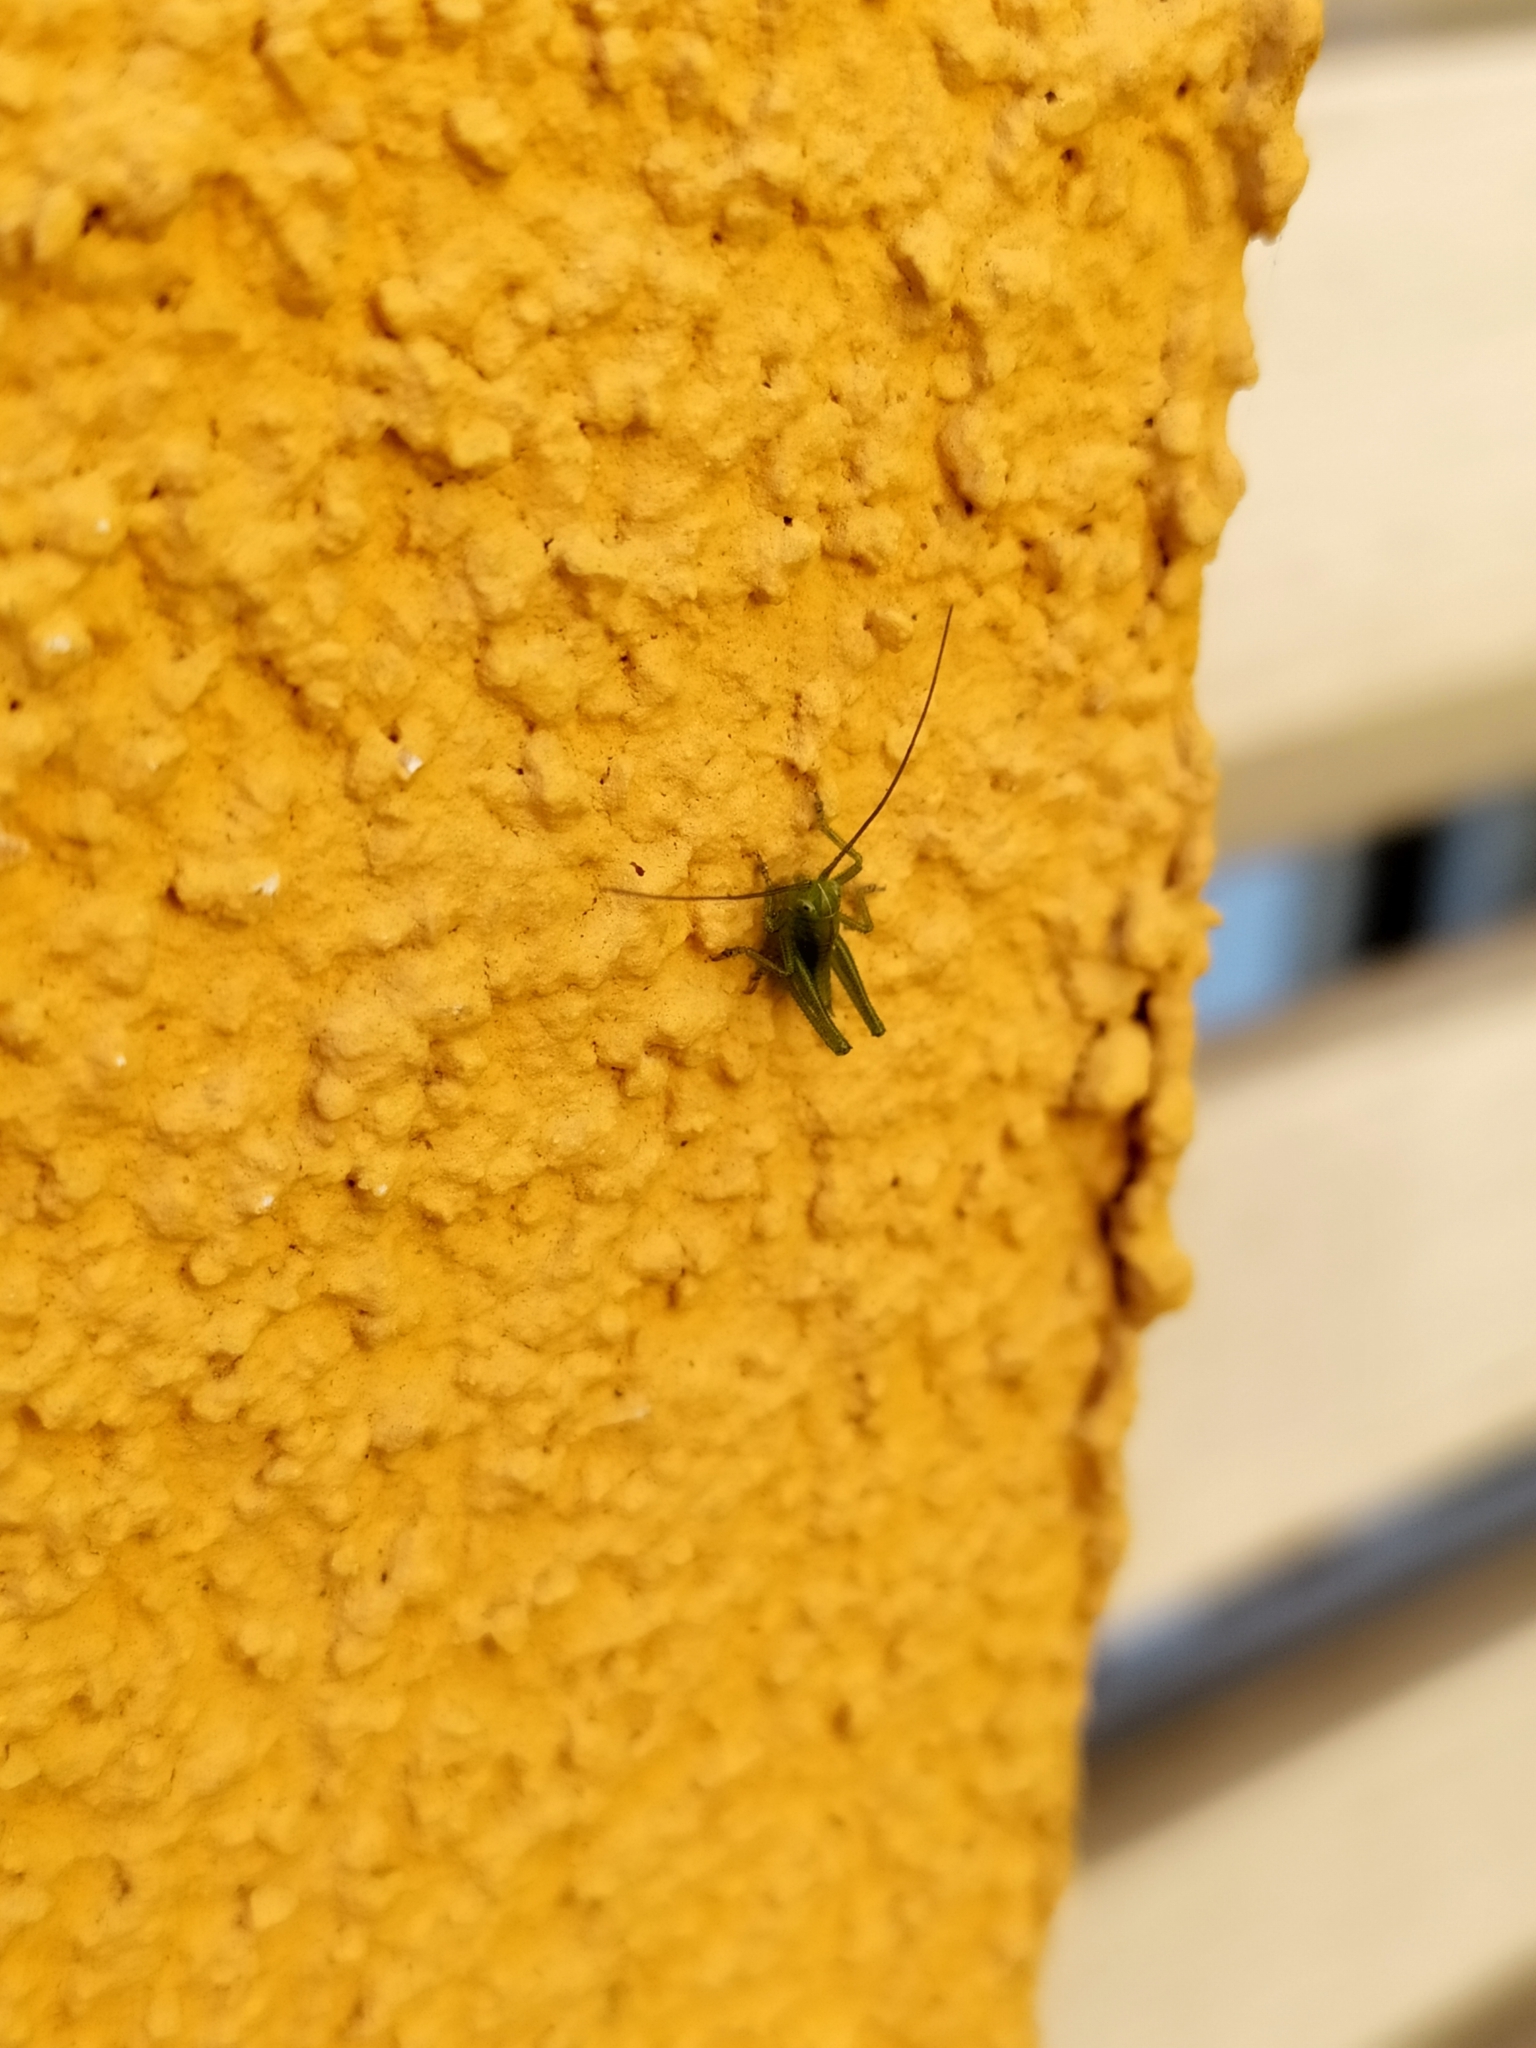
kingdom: Animalia
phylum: Arthropoda
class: Insecta
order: Orthoptera
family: Tettigoniidae
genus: Tettigonia
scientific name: Tettigonia viridissima
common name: Great green bush-cricket
